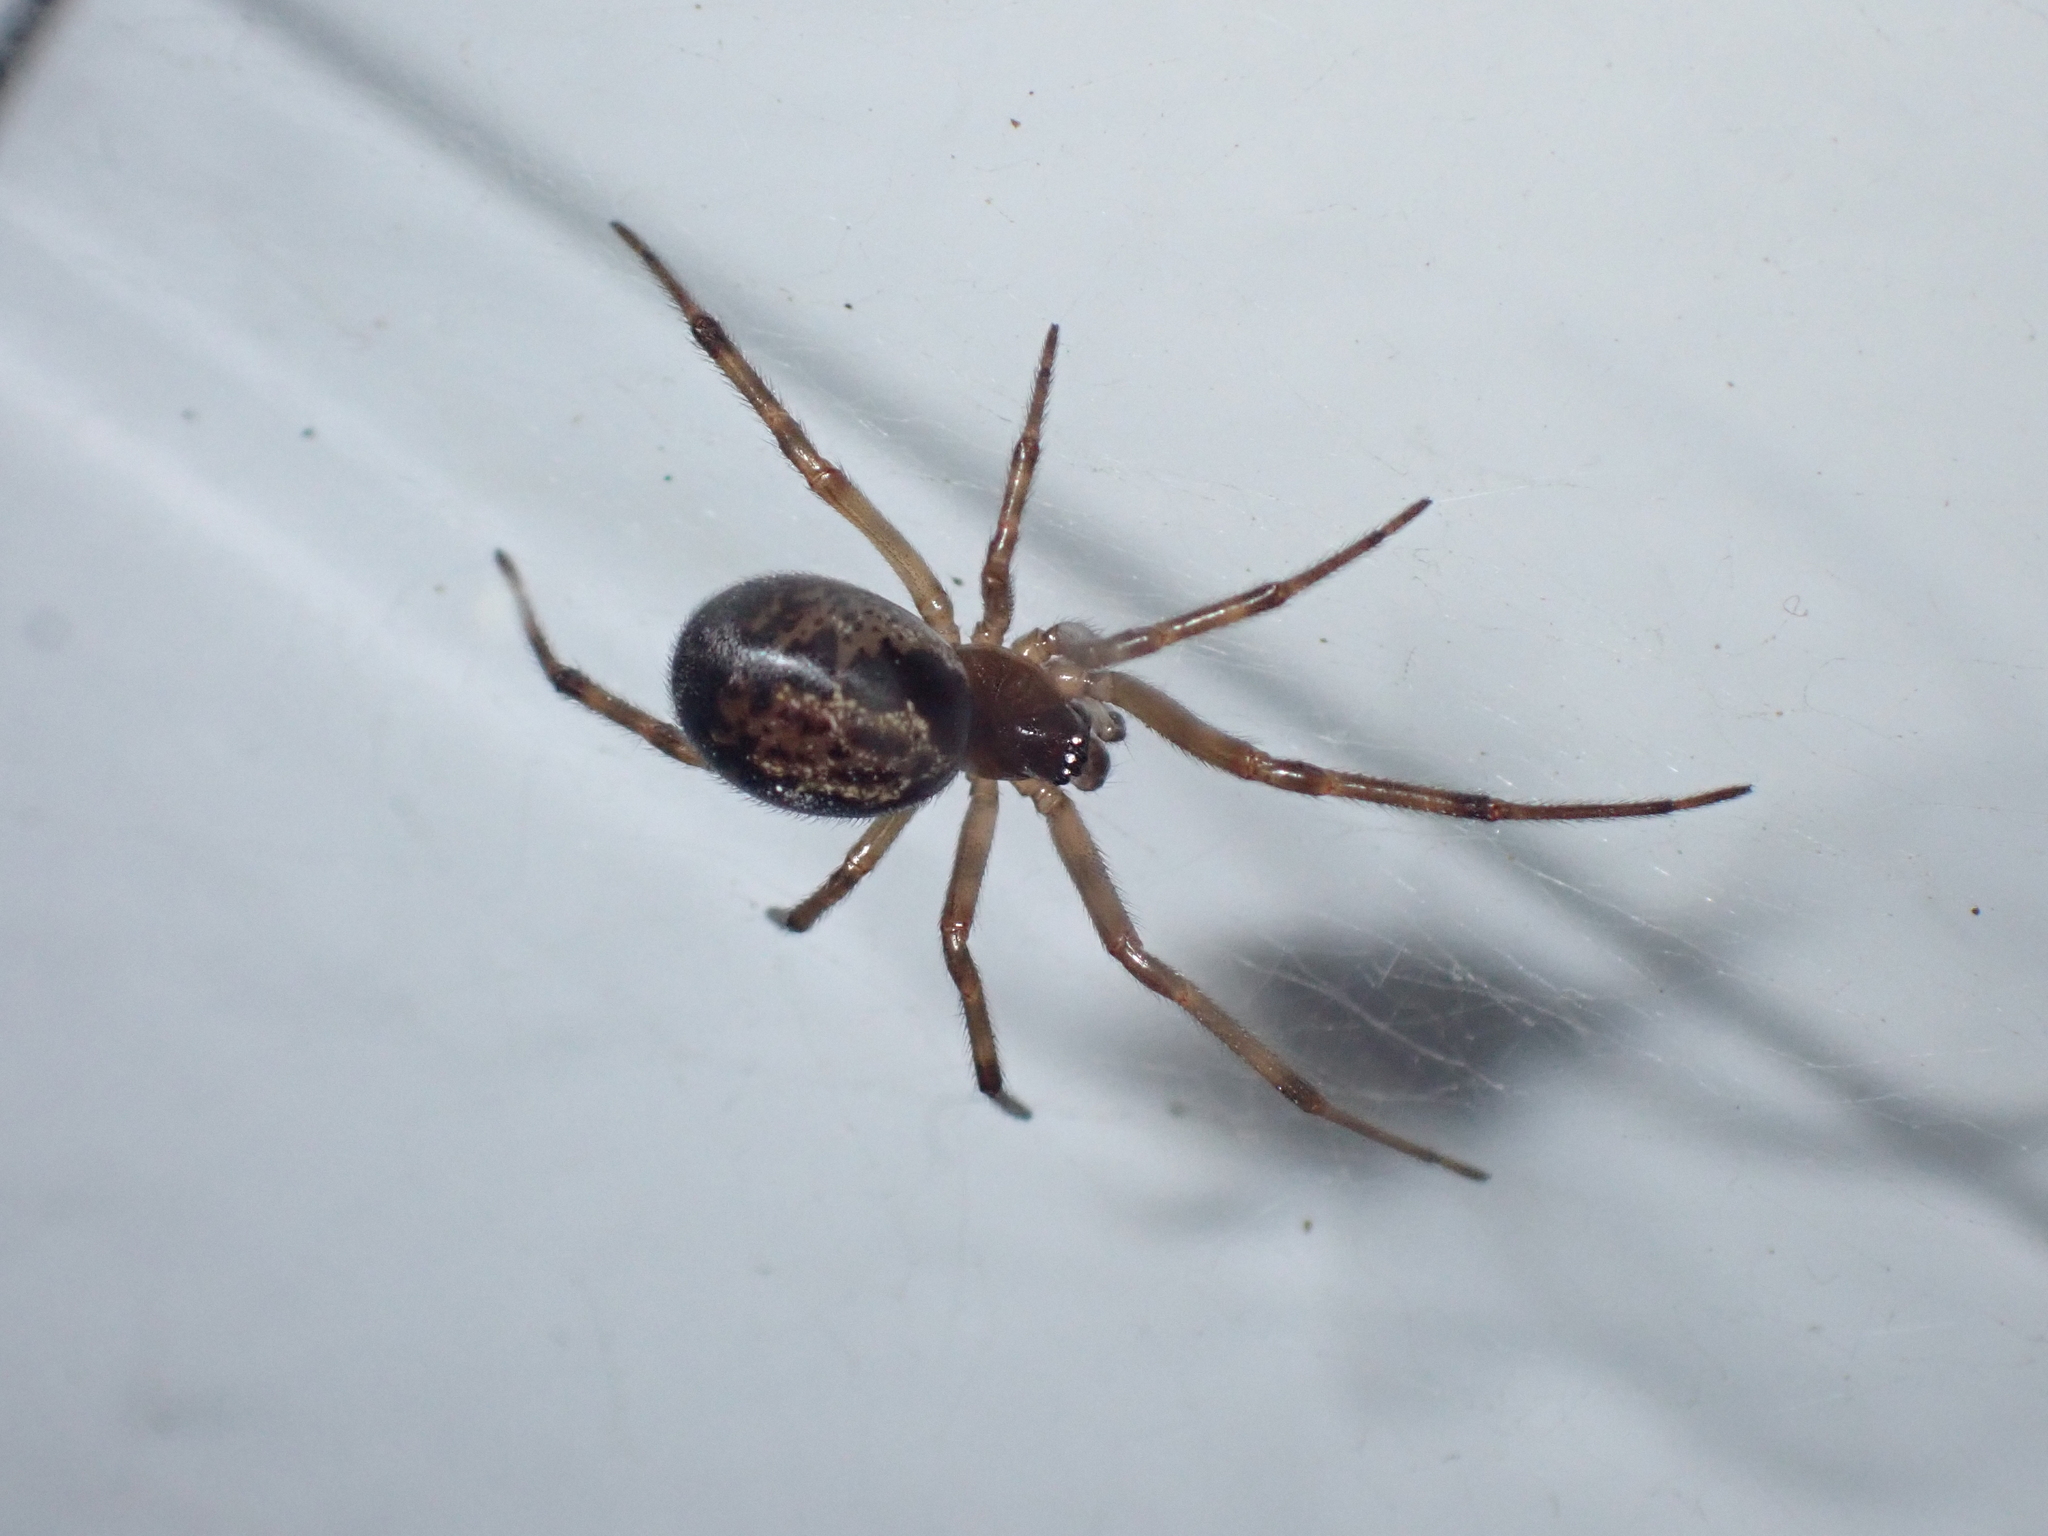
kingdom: Animalia
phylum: Arthropoda
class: Arachnida
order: Araneae
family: Theridiidae
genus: Steatoda
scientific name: Steatoda nobilis
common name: Cobweb weaver
